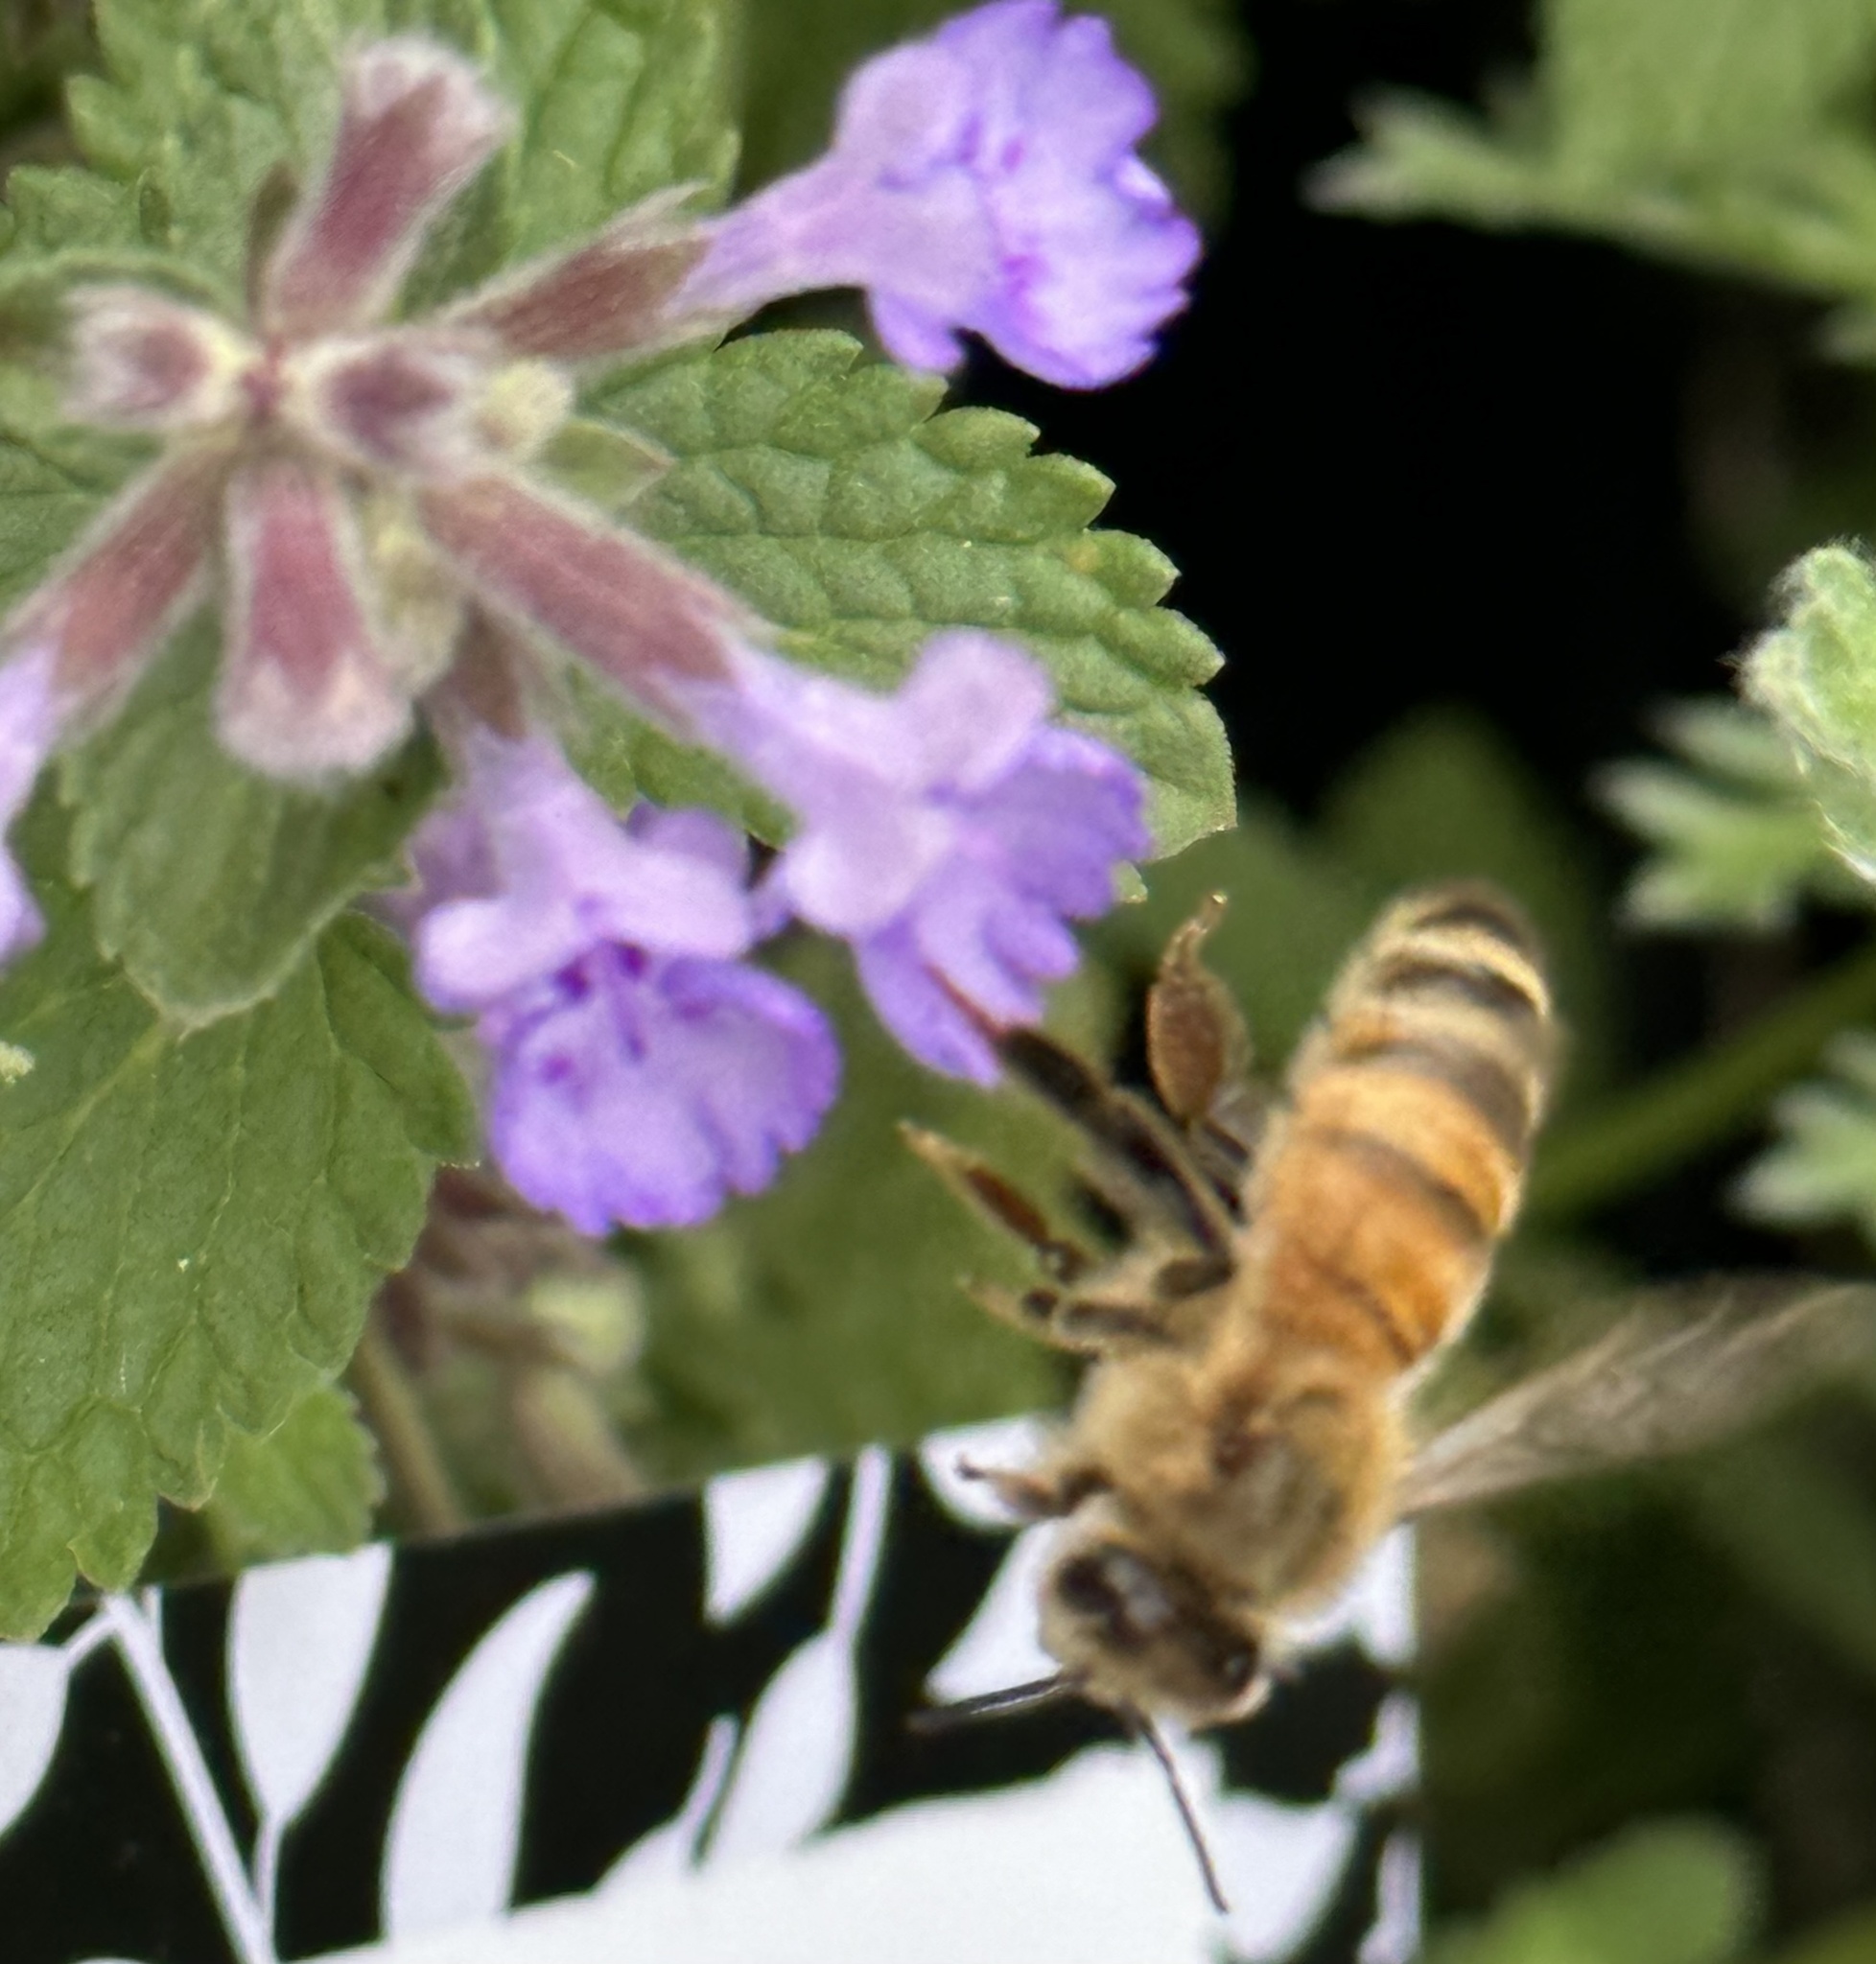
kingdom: Animalia
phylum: Arthropoda
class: Insecta
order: Hymenoptera
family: Apidae
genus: Apis
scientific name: Apis mellifera
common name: Honey bee
